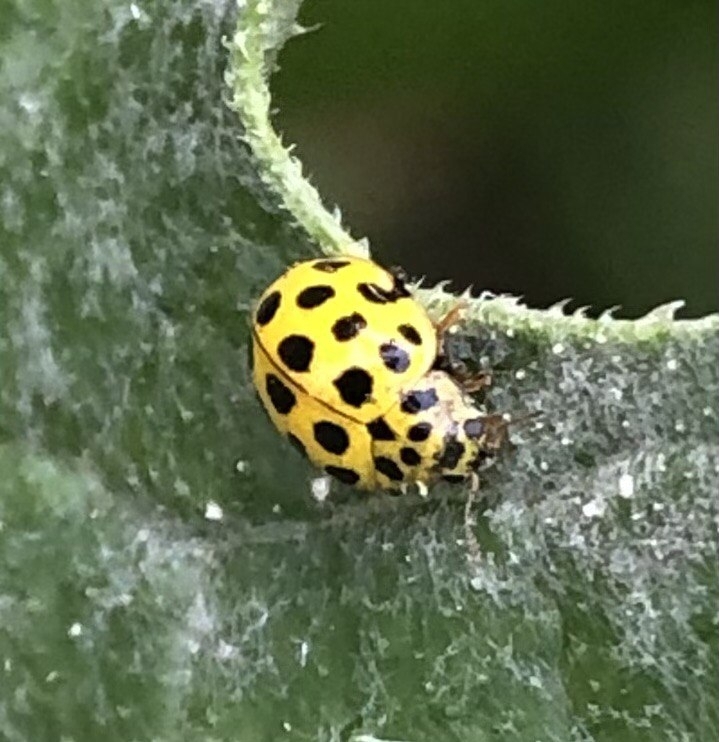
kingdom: Animalia
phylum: Arthropoda
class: Insecta
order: Coleoptera
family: Coccinellidae
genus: Psyllobora
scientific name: Psyllobora vigintiduopunctata
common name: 22-spot ladybird
